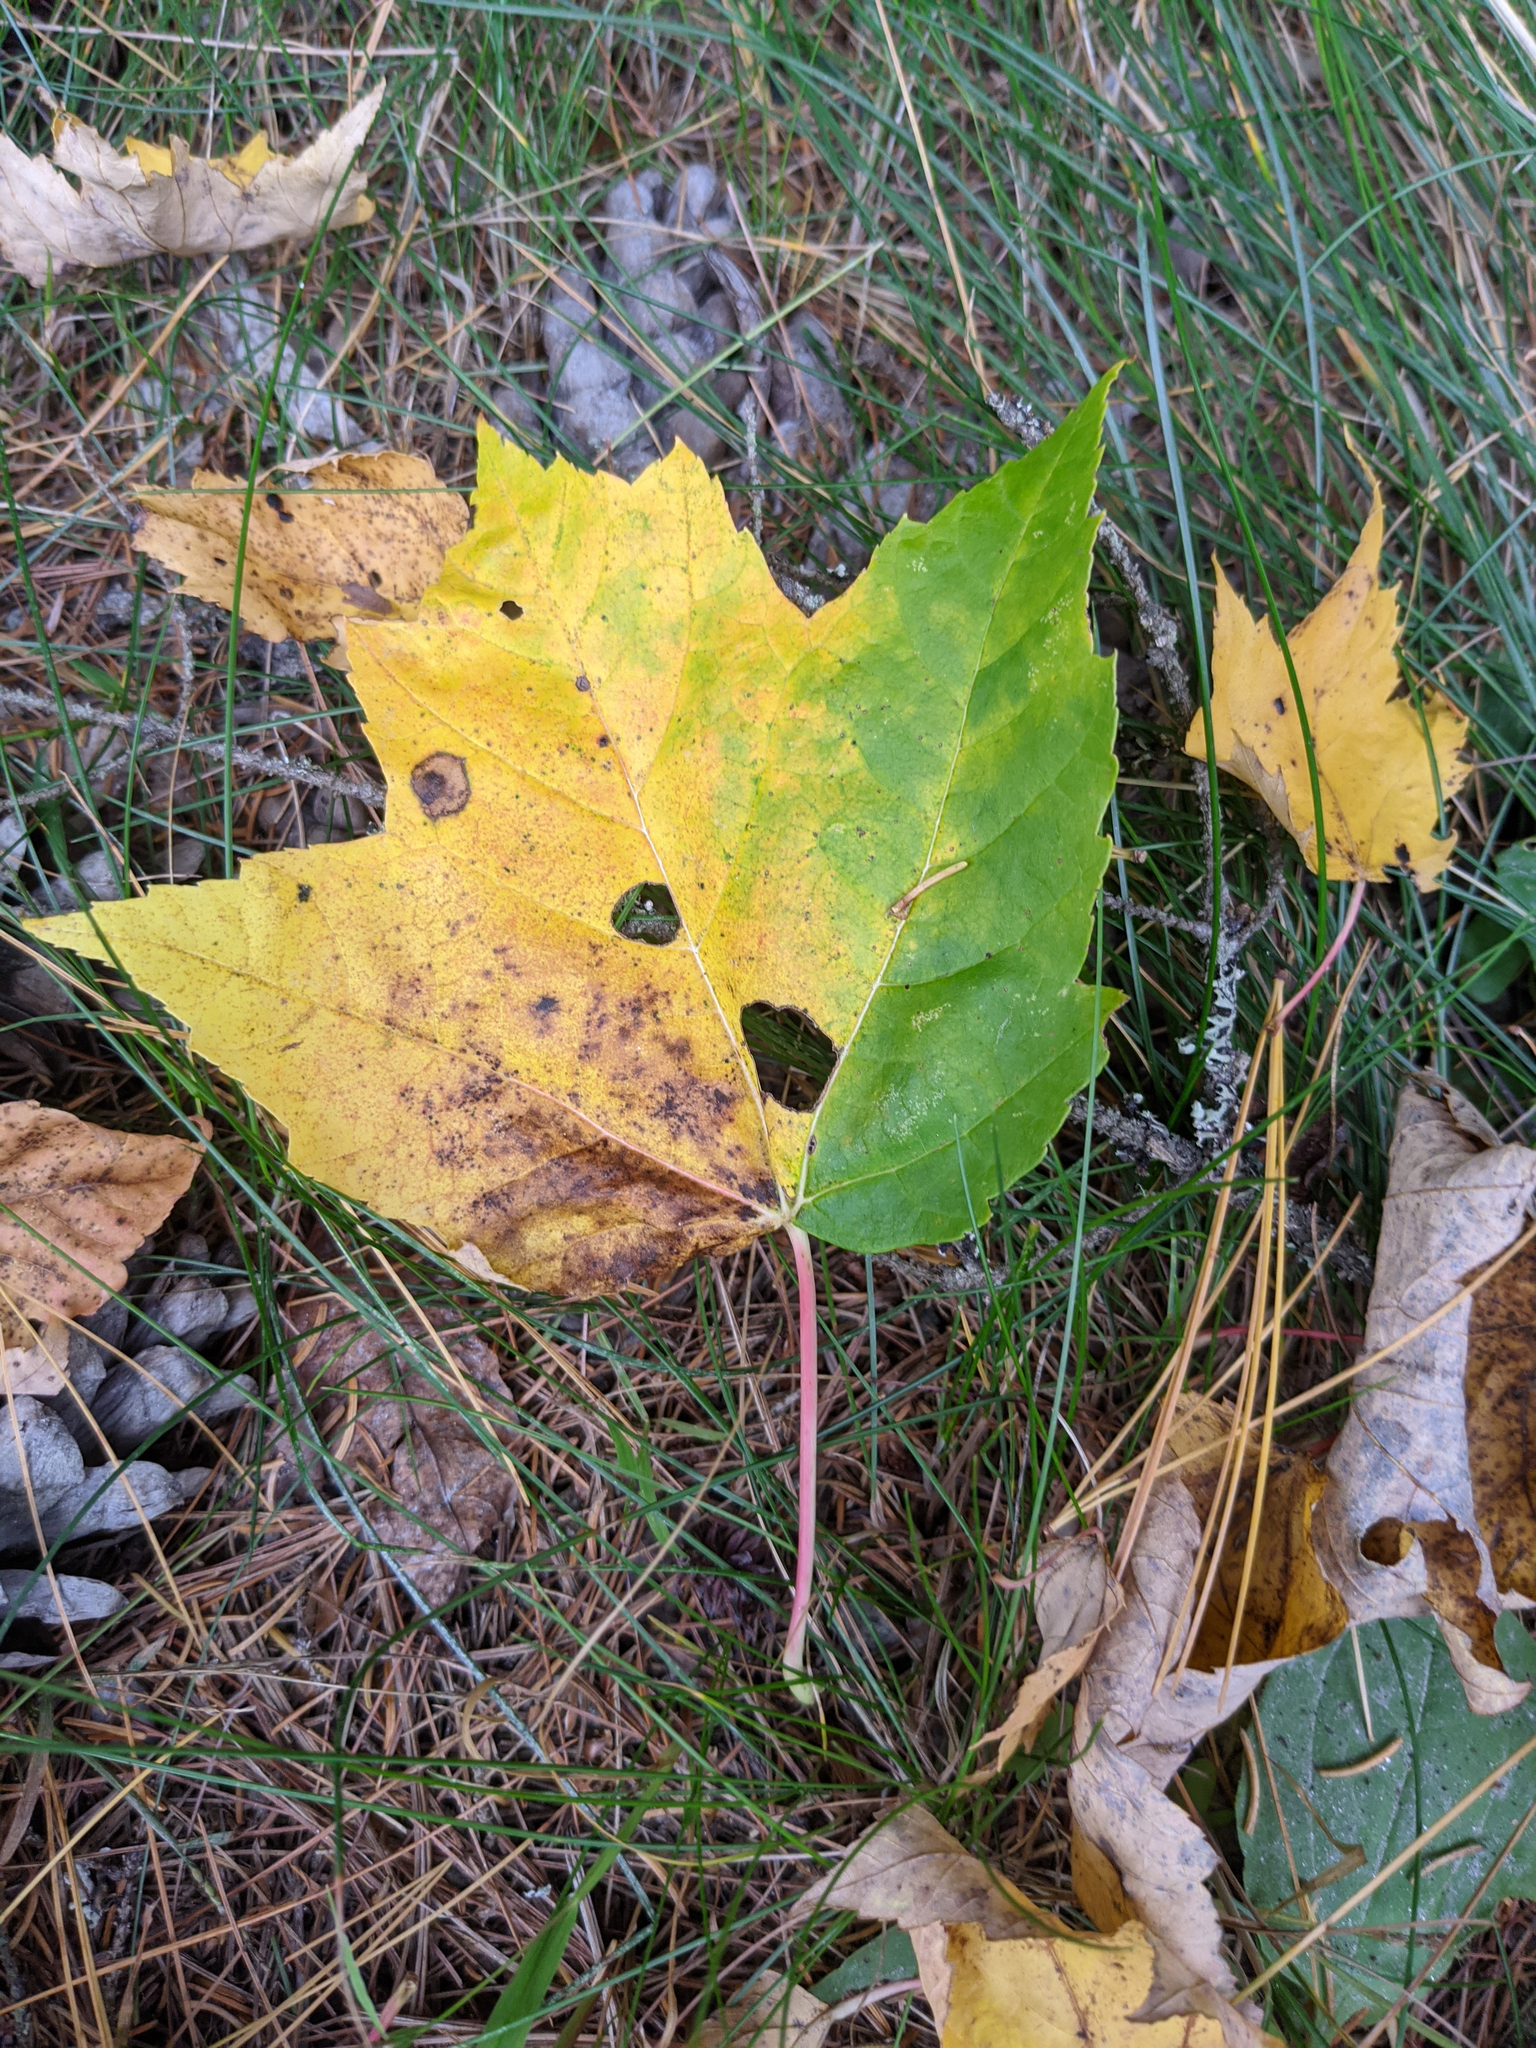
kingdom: Plantae
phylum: Tracheophyta
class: Magnoliopsida
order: Sapindales
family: Sapindaceae
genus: Acer
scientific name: Acer rubrum
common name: Red maple
